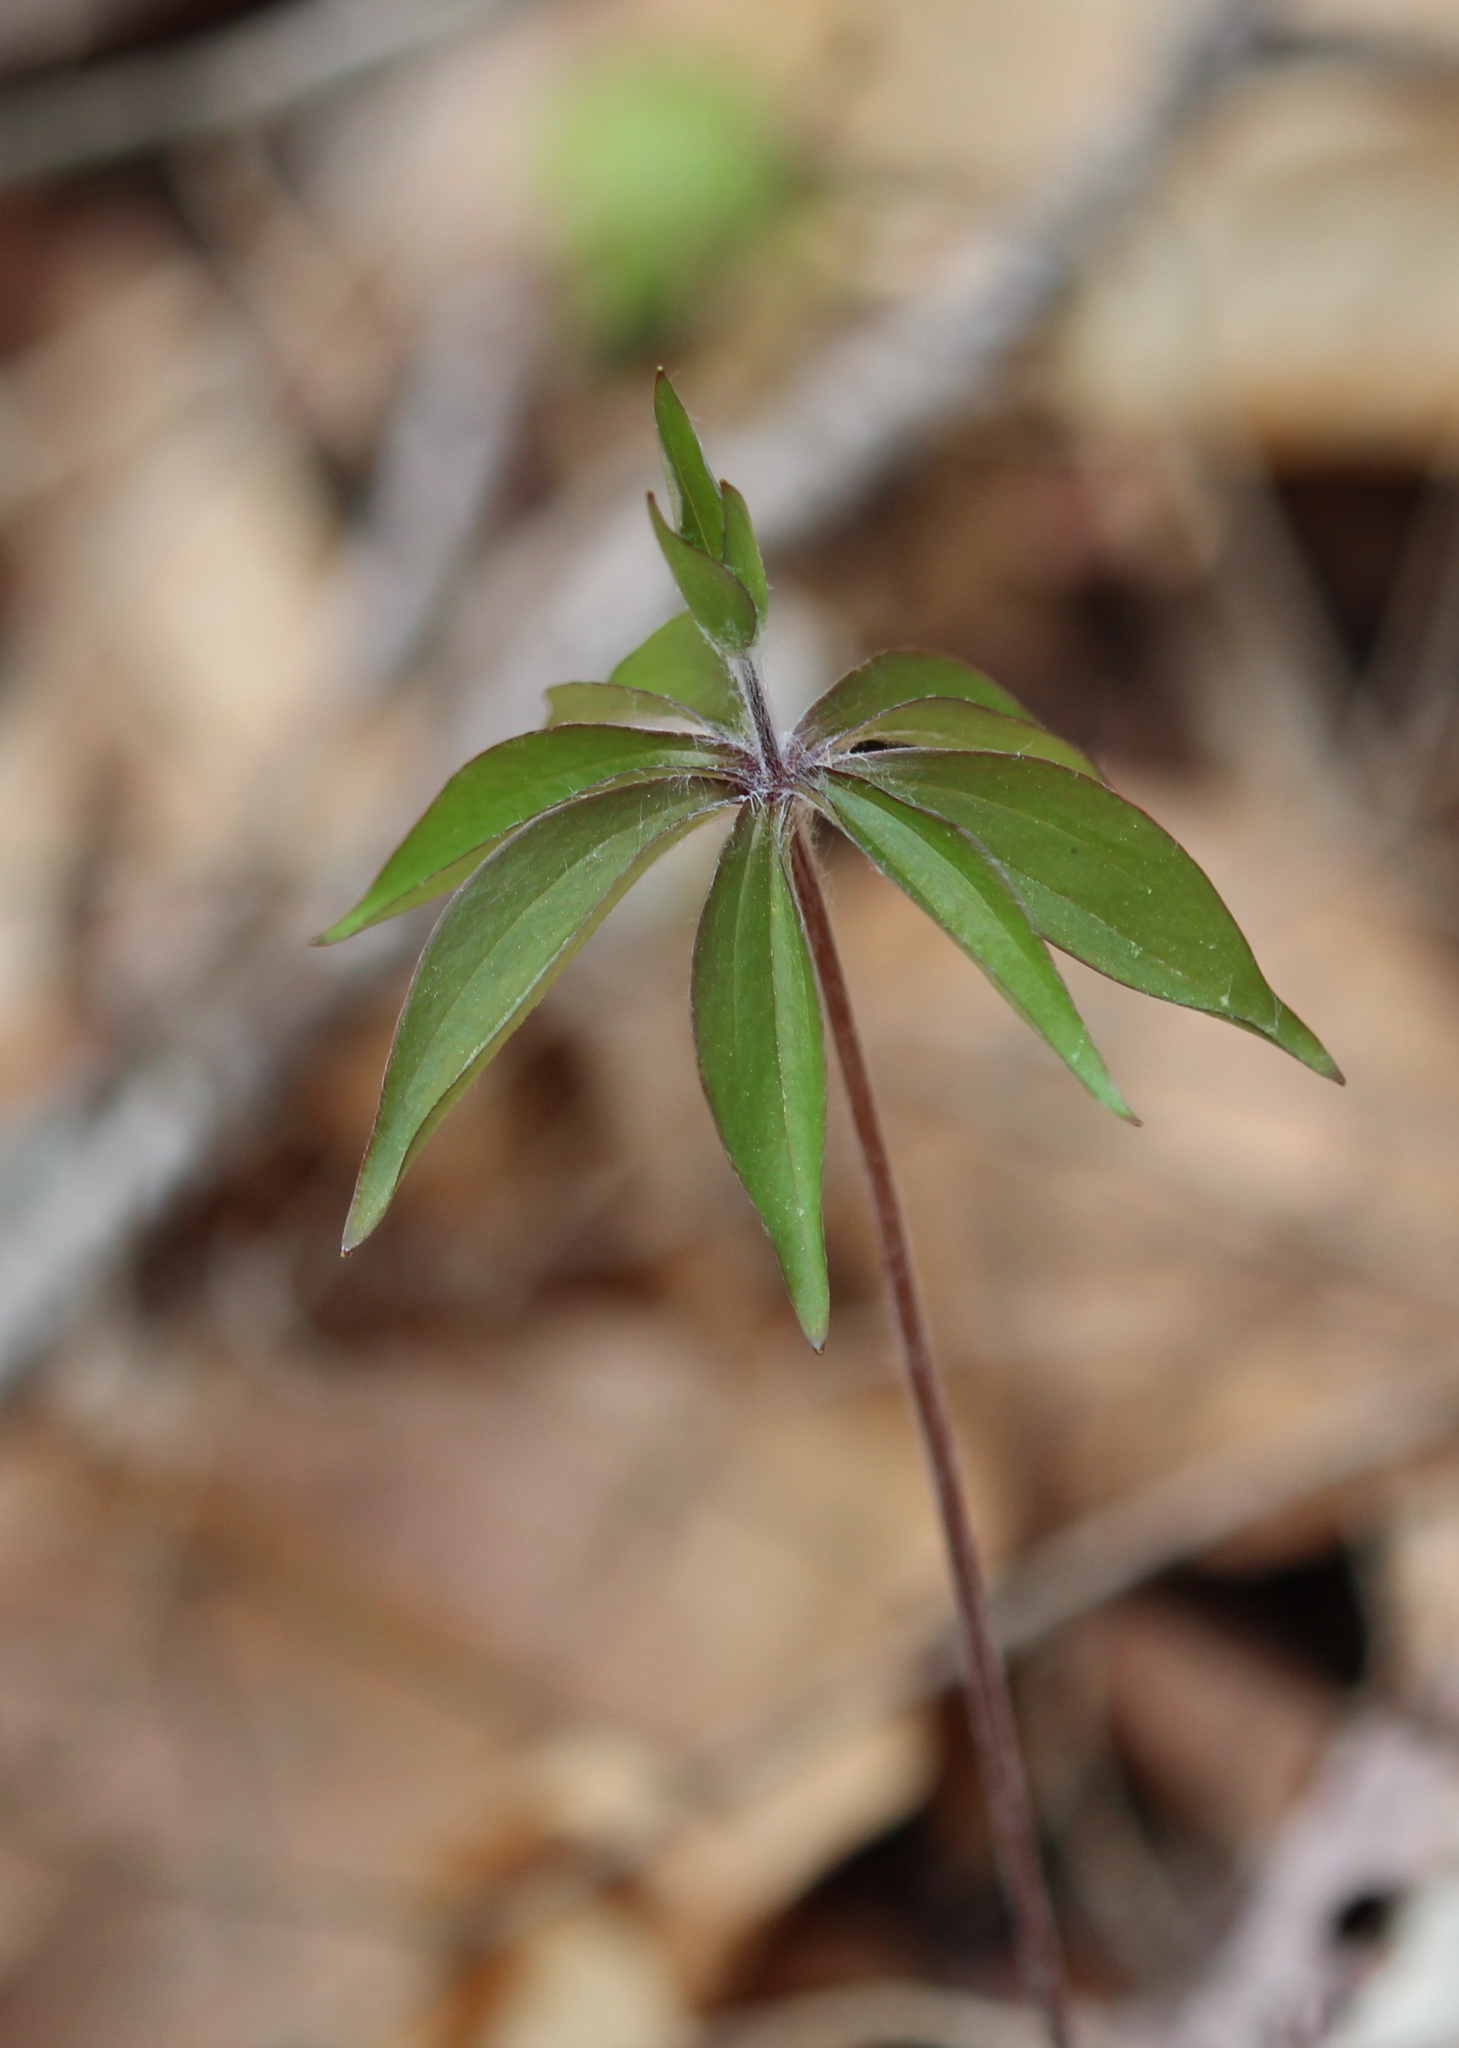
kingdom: Plantae
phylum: Tracheophyta
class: Liliopsida
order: Liliales
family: Liliaceae
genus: Medeola
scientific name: Medeola virginiana
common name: Indian cucumber-root
